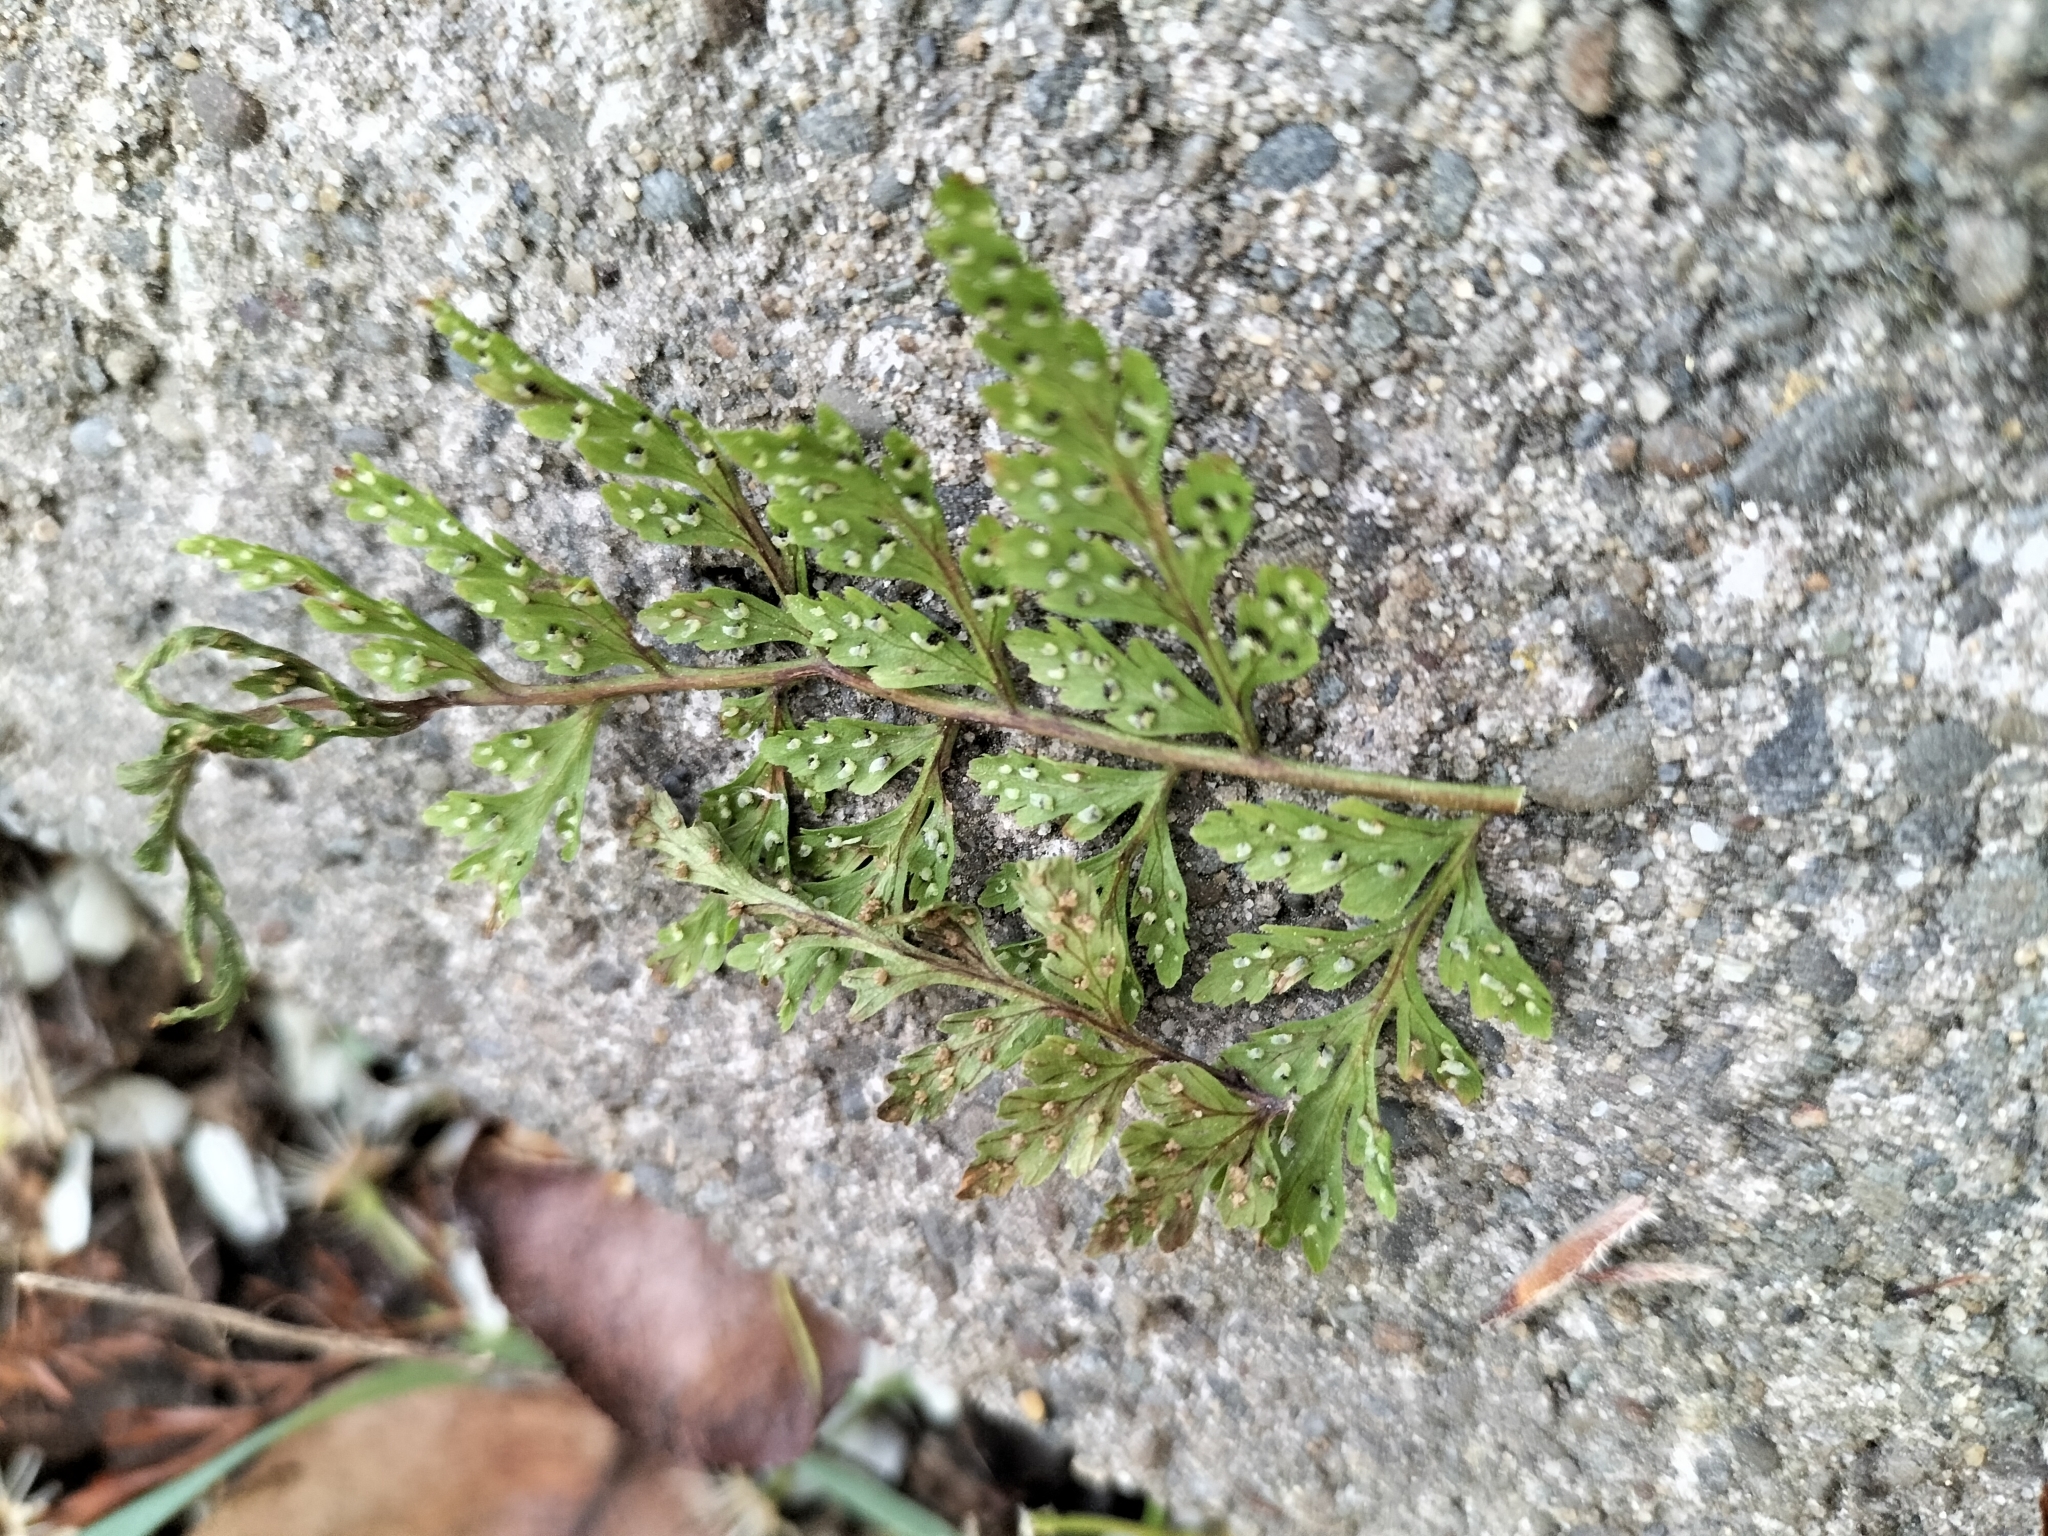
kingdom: Plantae
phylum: Tracheophyta
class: Polypodiopsida
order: Polypodiales
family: Cystopteridaceae
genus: Cystopteris
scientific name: Cystopteris fragilis
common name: Brittle bladder fern
